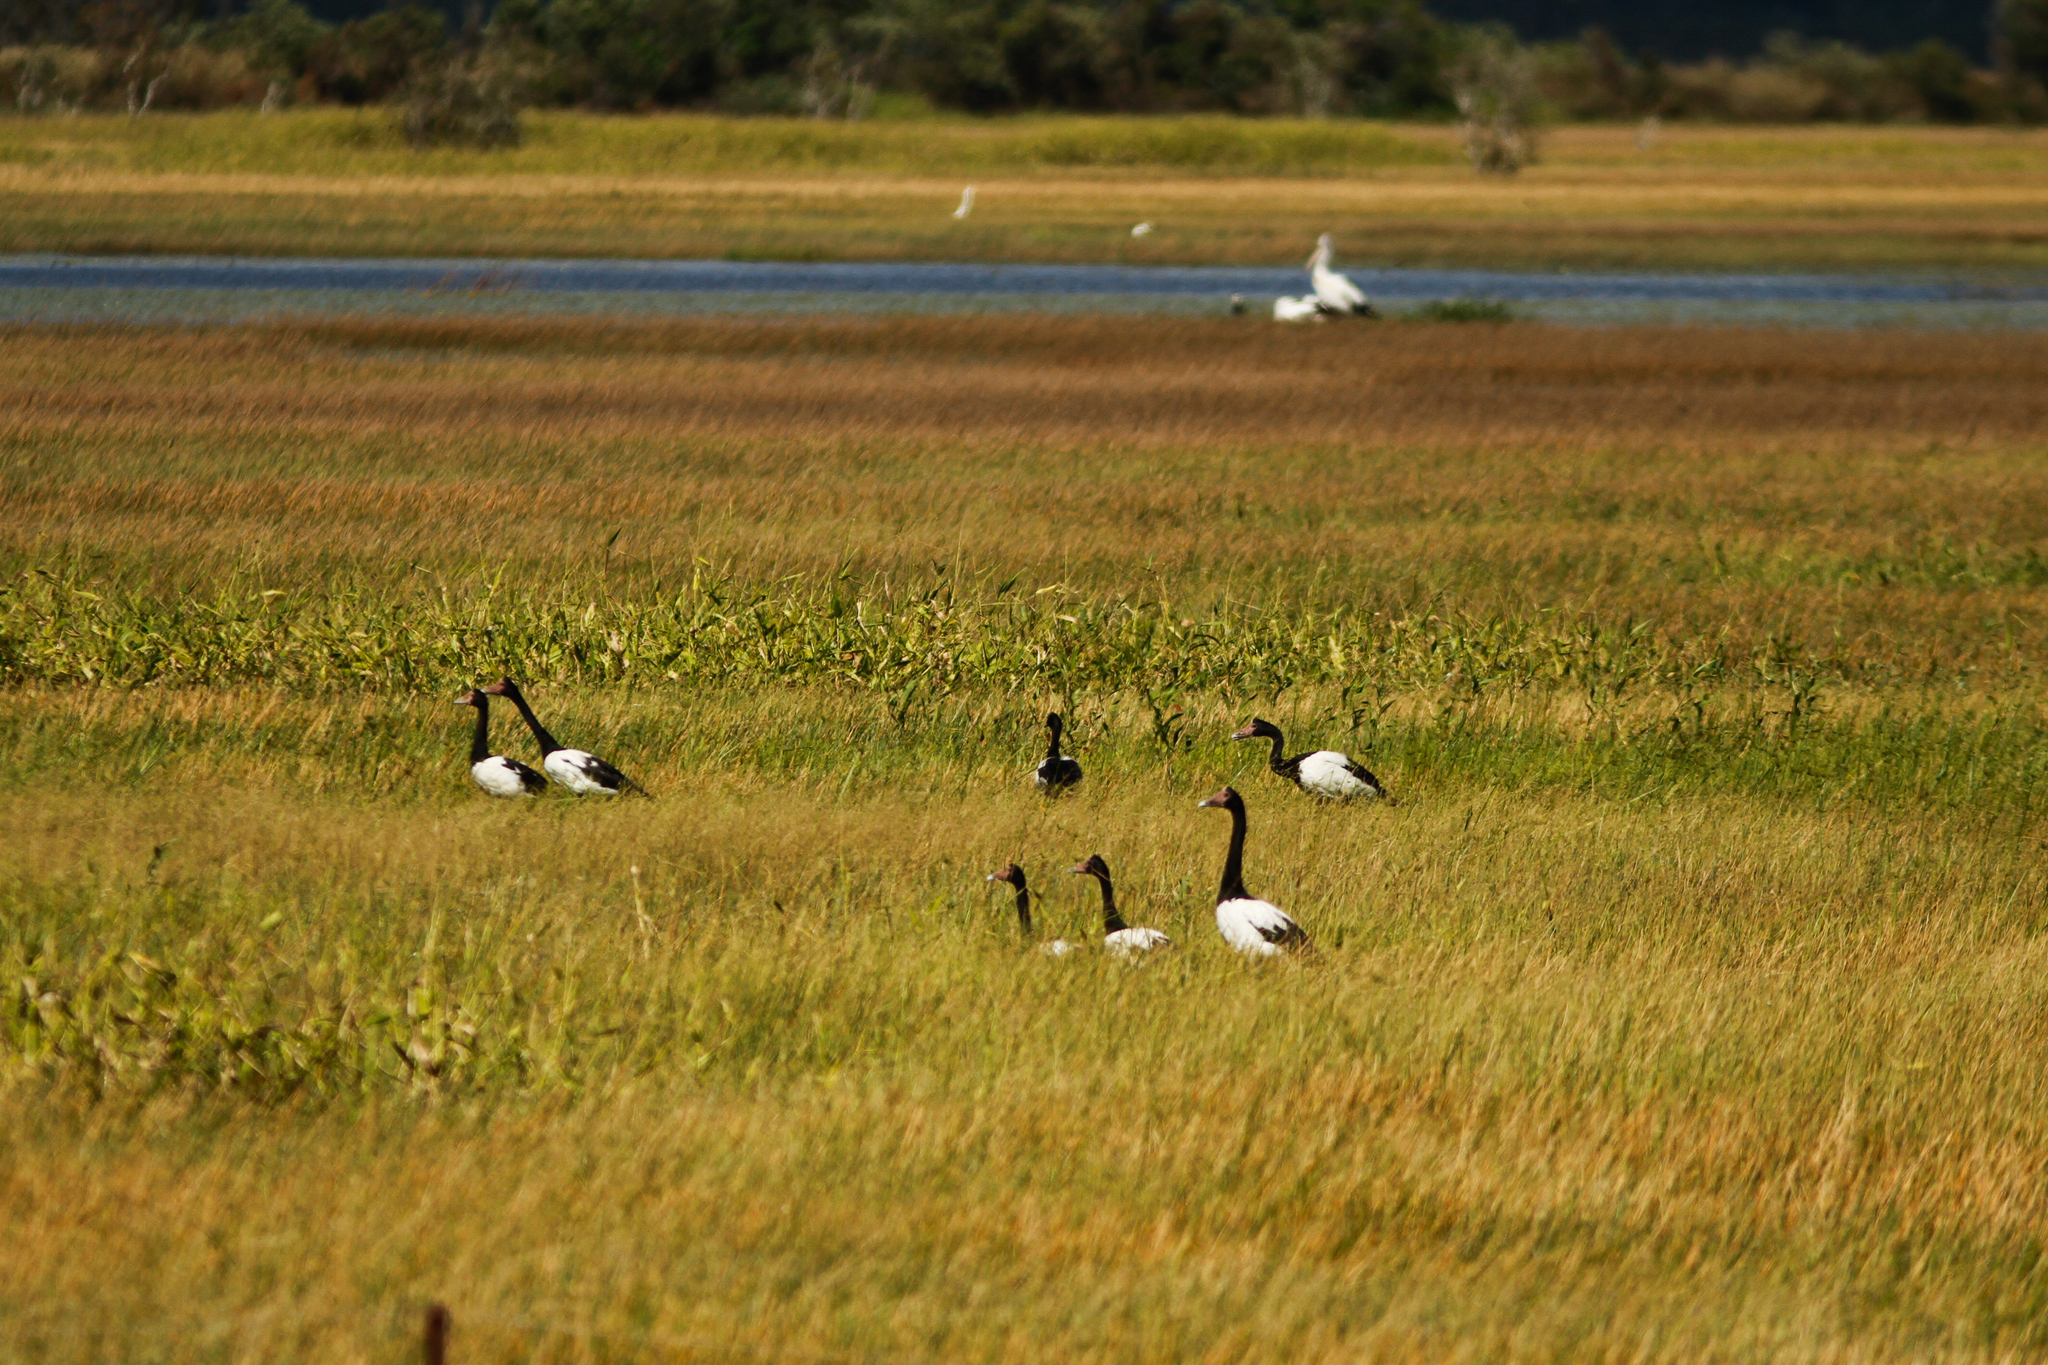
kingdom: Animalia
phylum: Chordata
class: Aves
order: Anseriformes
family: Anseranatidae
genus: Anseranas
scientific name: Anseranas semipalmata
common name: Magpie goose
